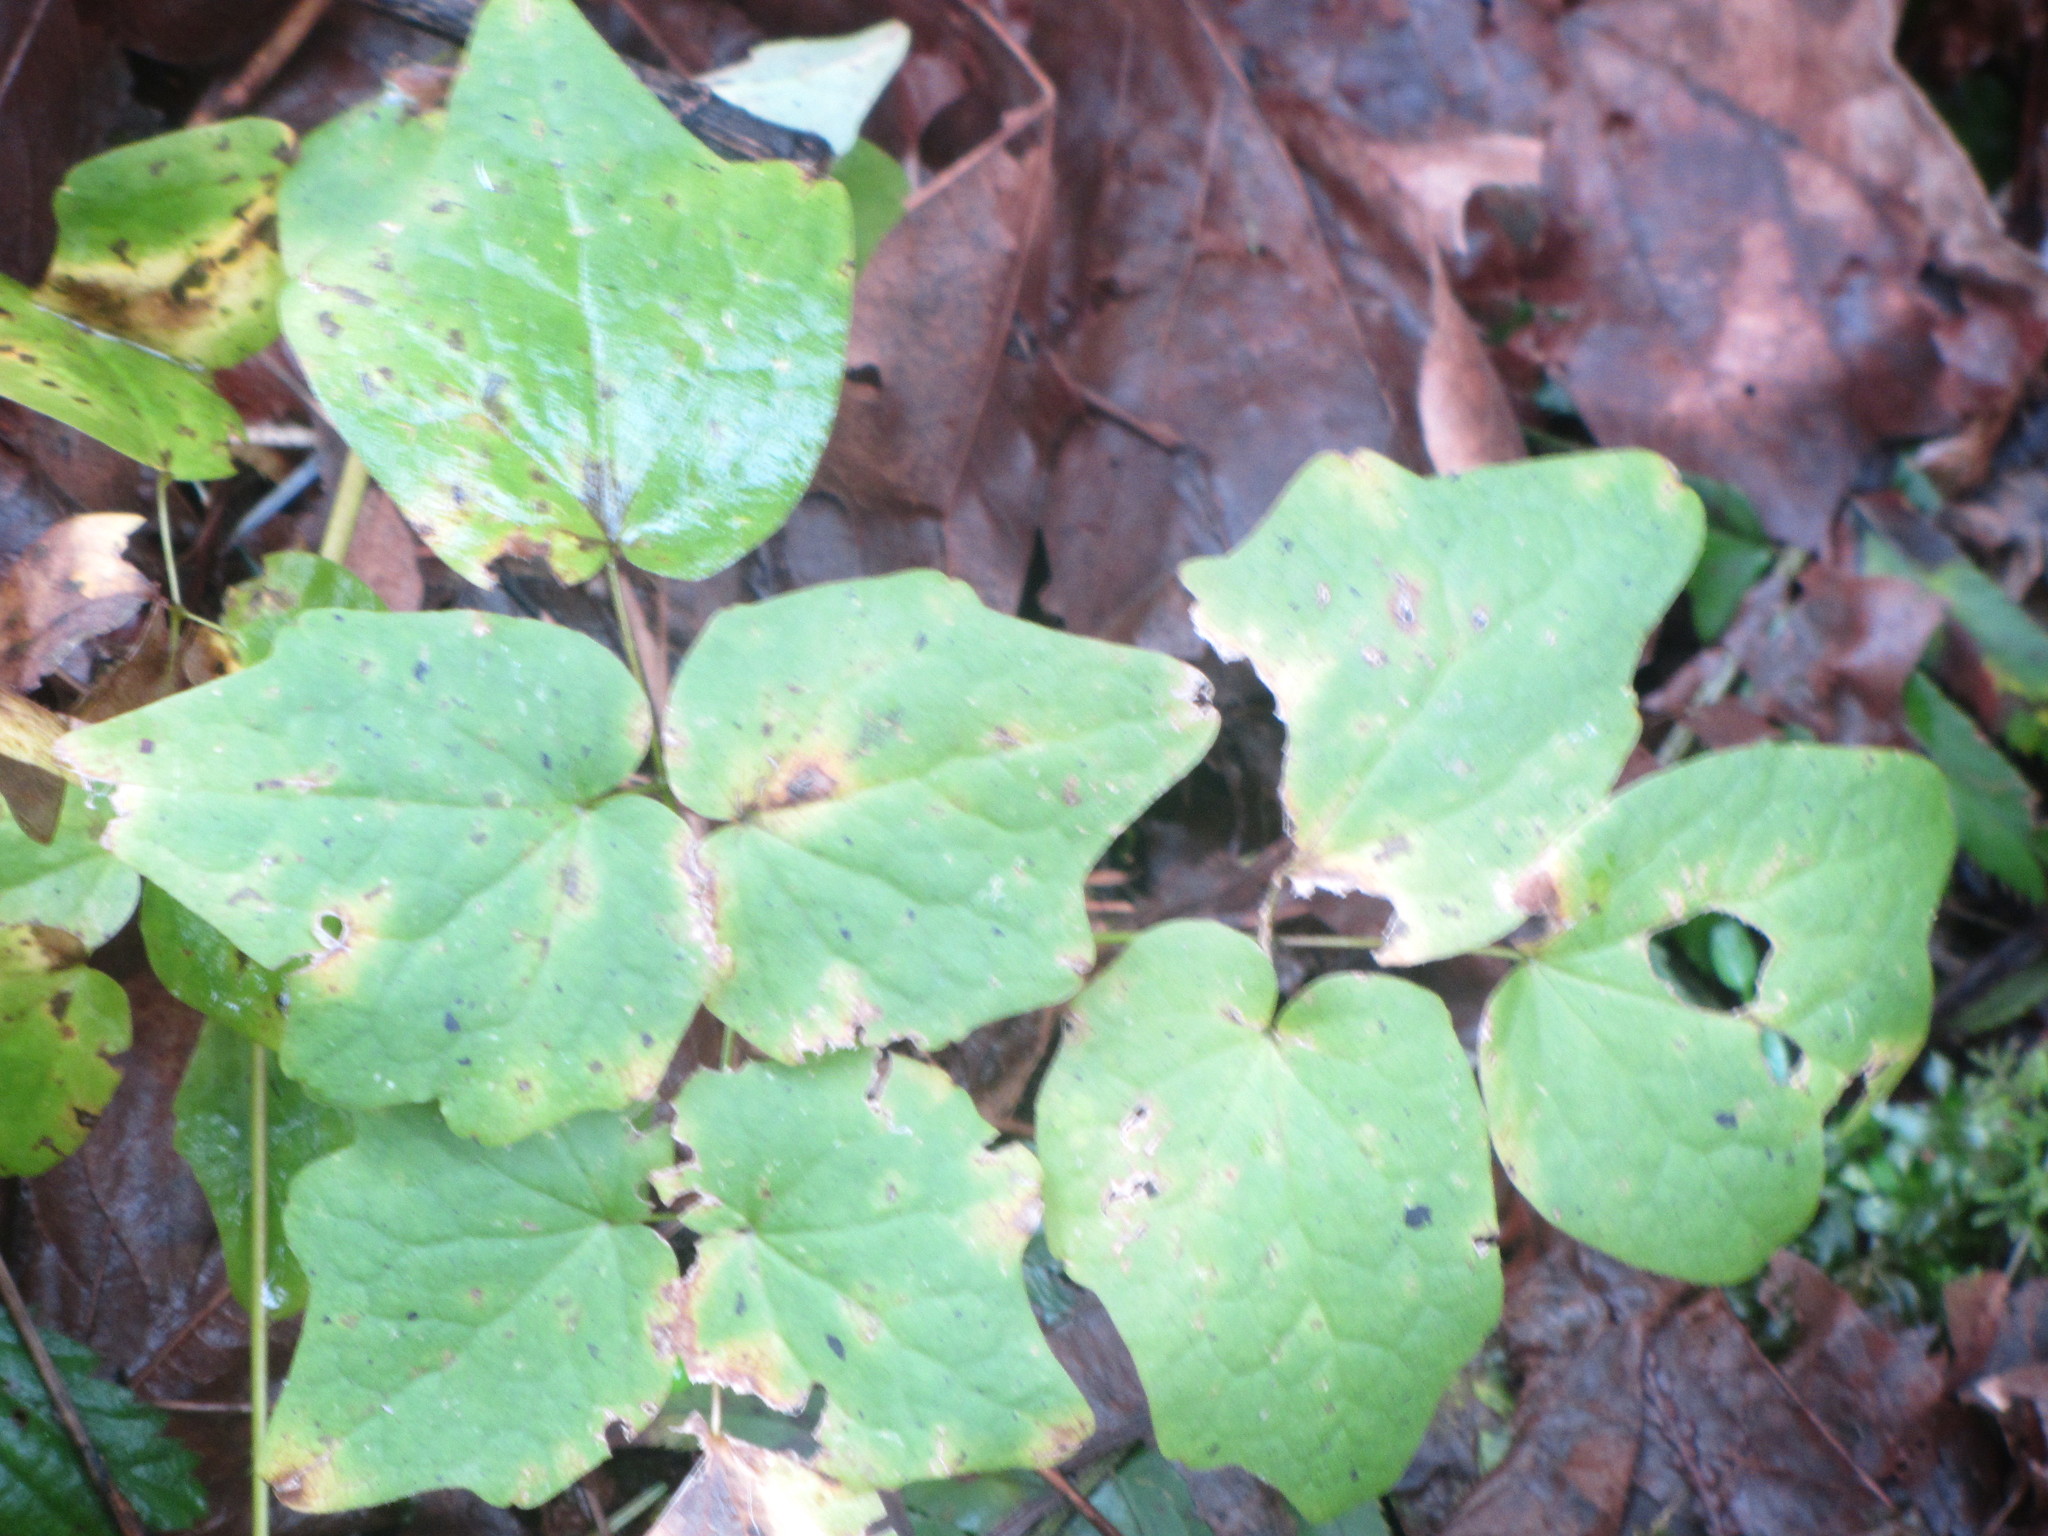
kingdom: Plantae
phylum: Tracheophyta
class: Magnoliopsida
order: Ranunculales
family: Berberidaceae
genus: Vancouveria
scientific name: Vancouveria hexandra
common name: Northern inside-out-flower
